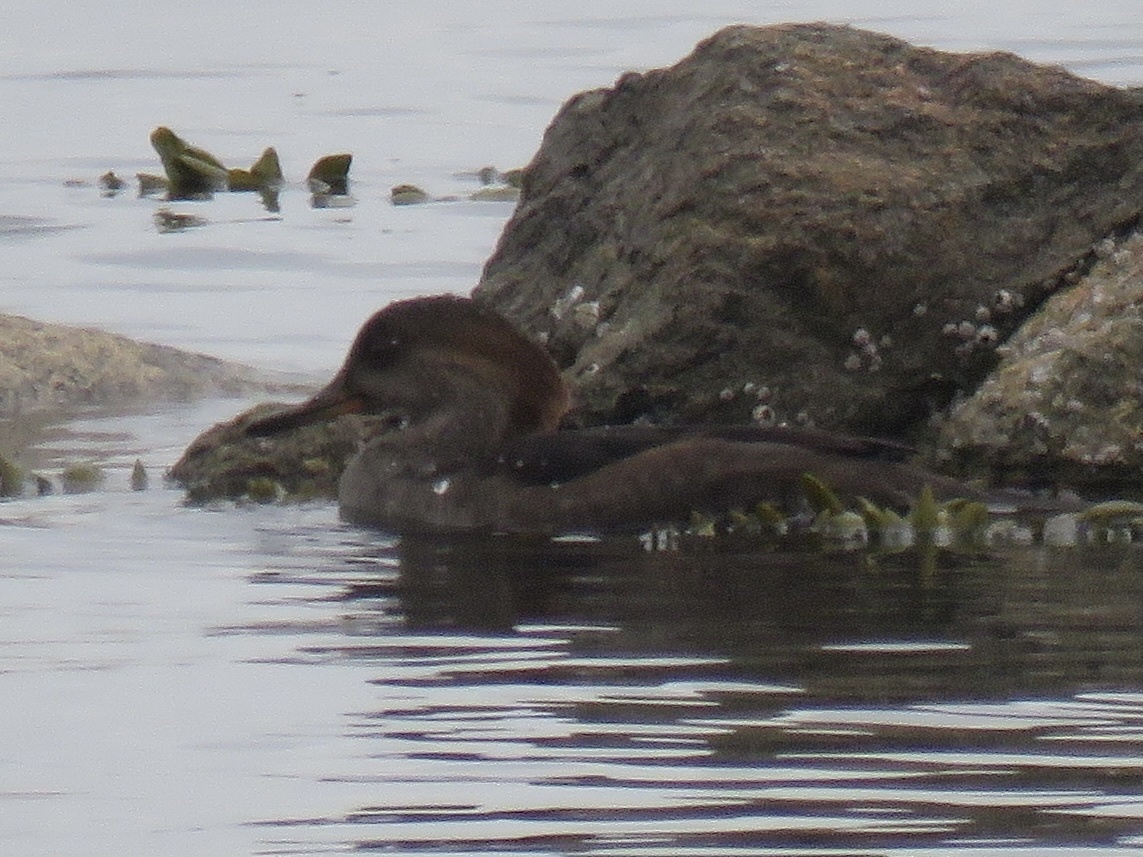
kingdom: Animalia
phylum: Chordata
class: Aves
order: Anseriformes
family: Anatidae
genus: Lophodytes
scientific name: Lophodytes cucullatus
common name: Hooded merganser
